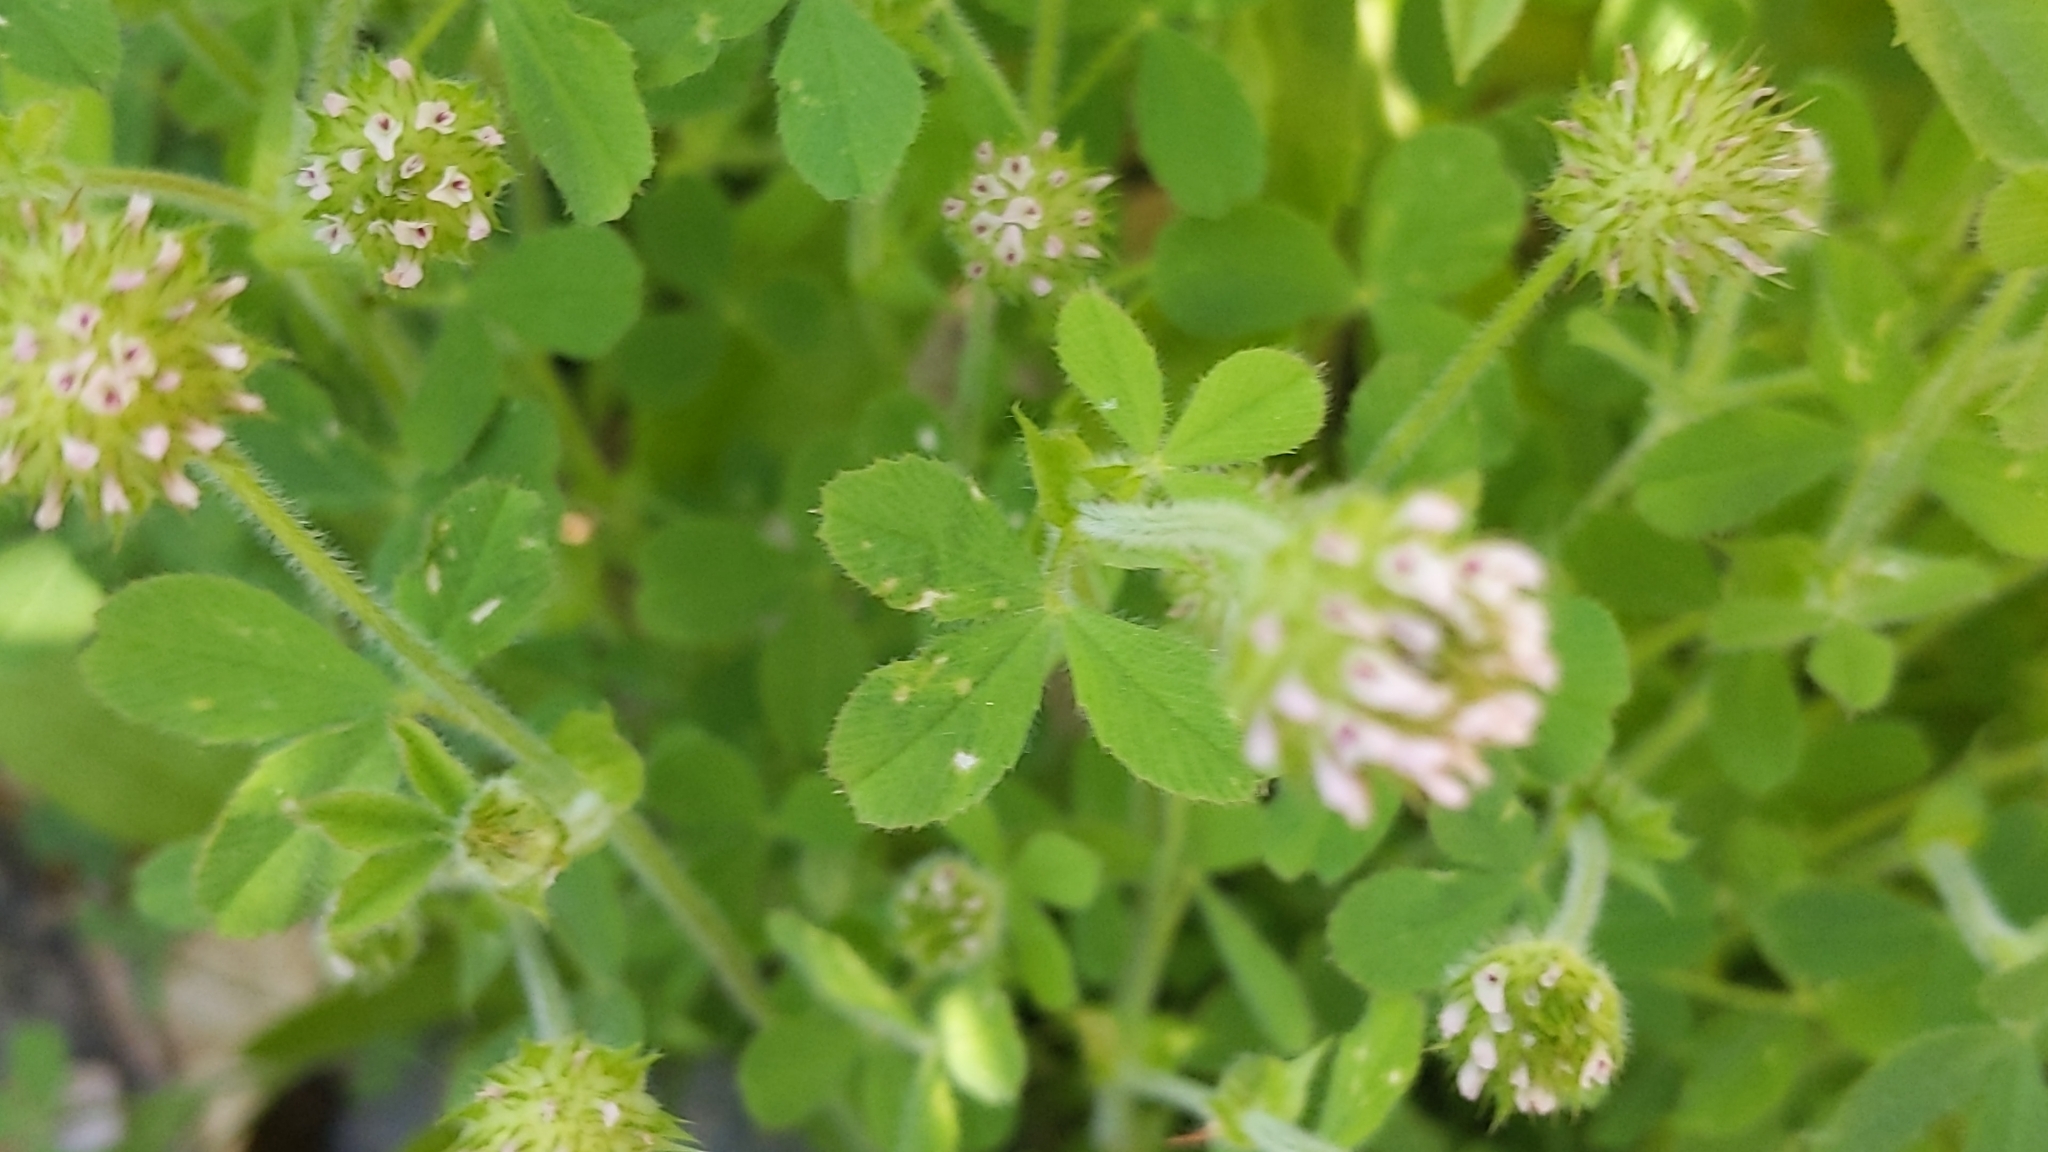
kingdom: Plantae
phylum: Tracheophyta
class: Magnoliopsida
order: Fabales
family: Fabaceae
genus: Trifolium
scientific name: Trifolium microcephalum
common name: Maiden clover
